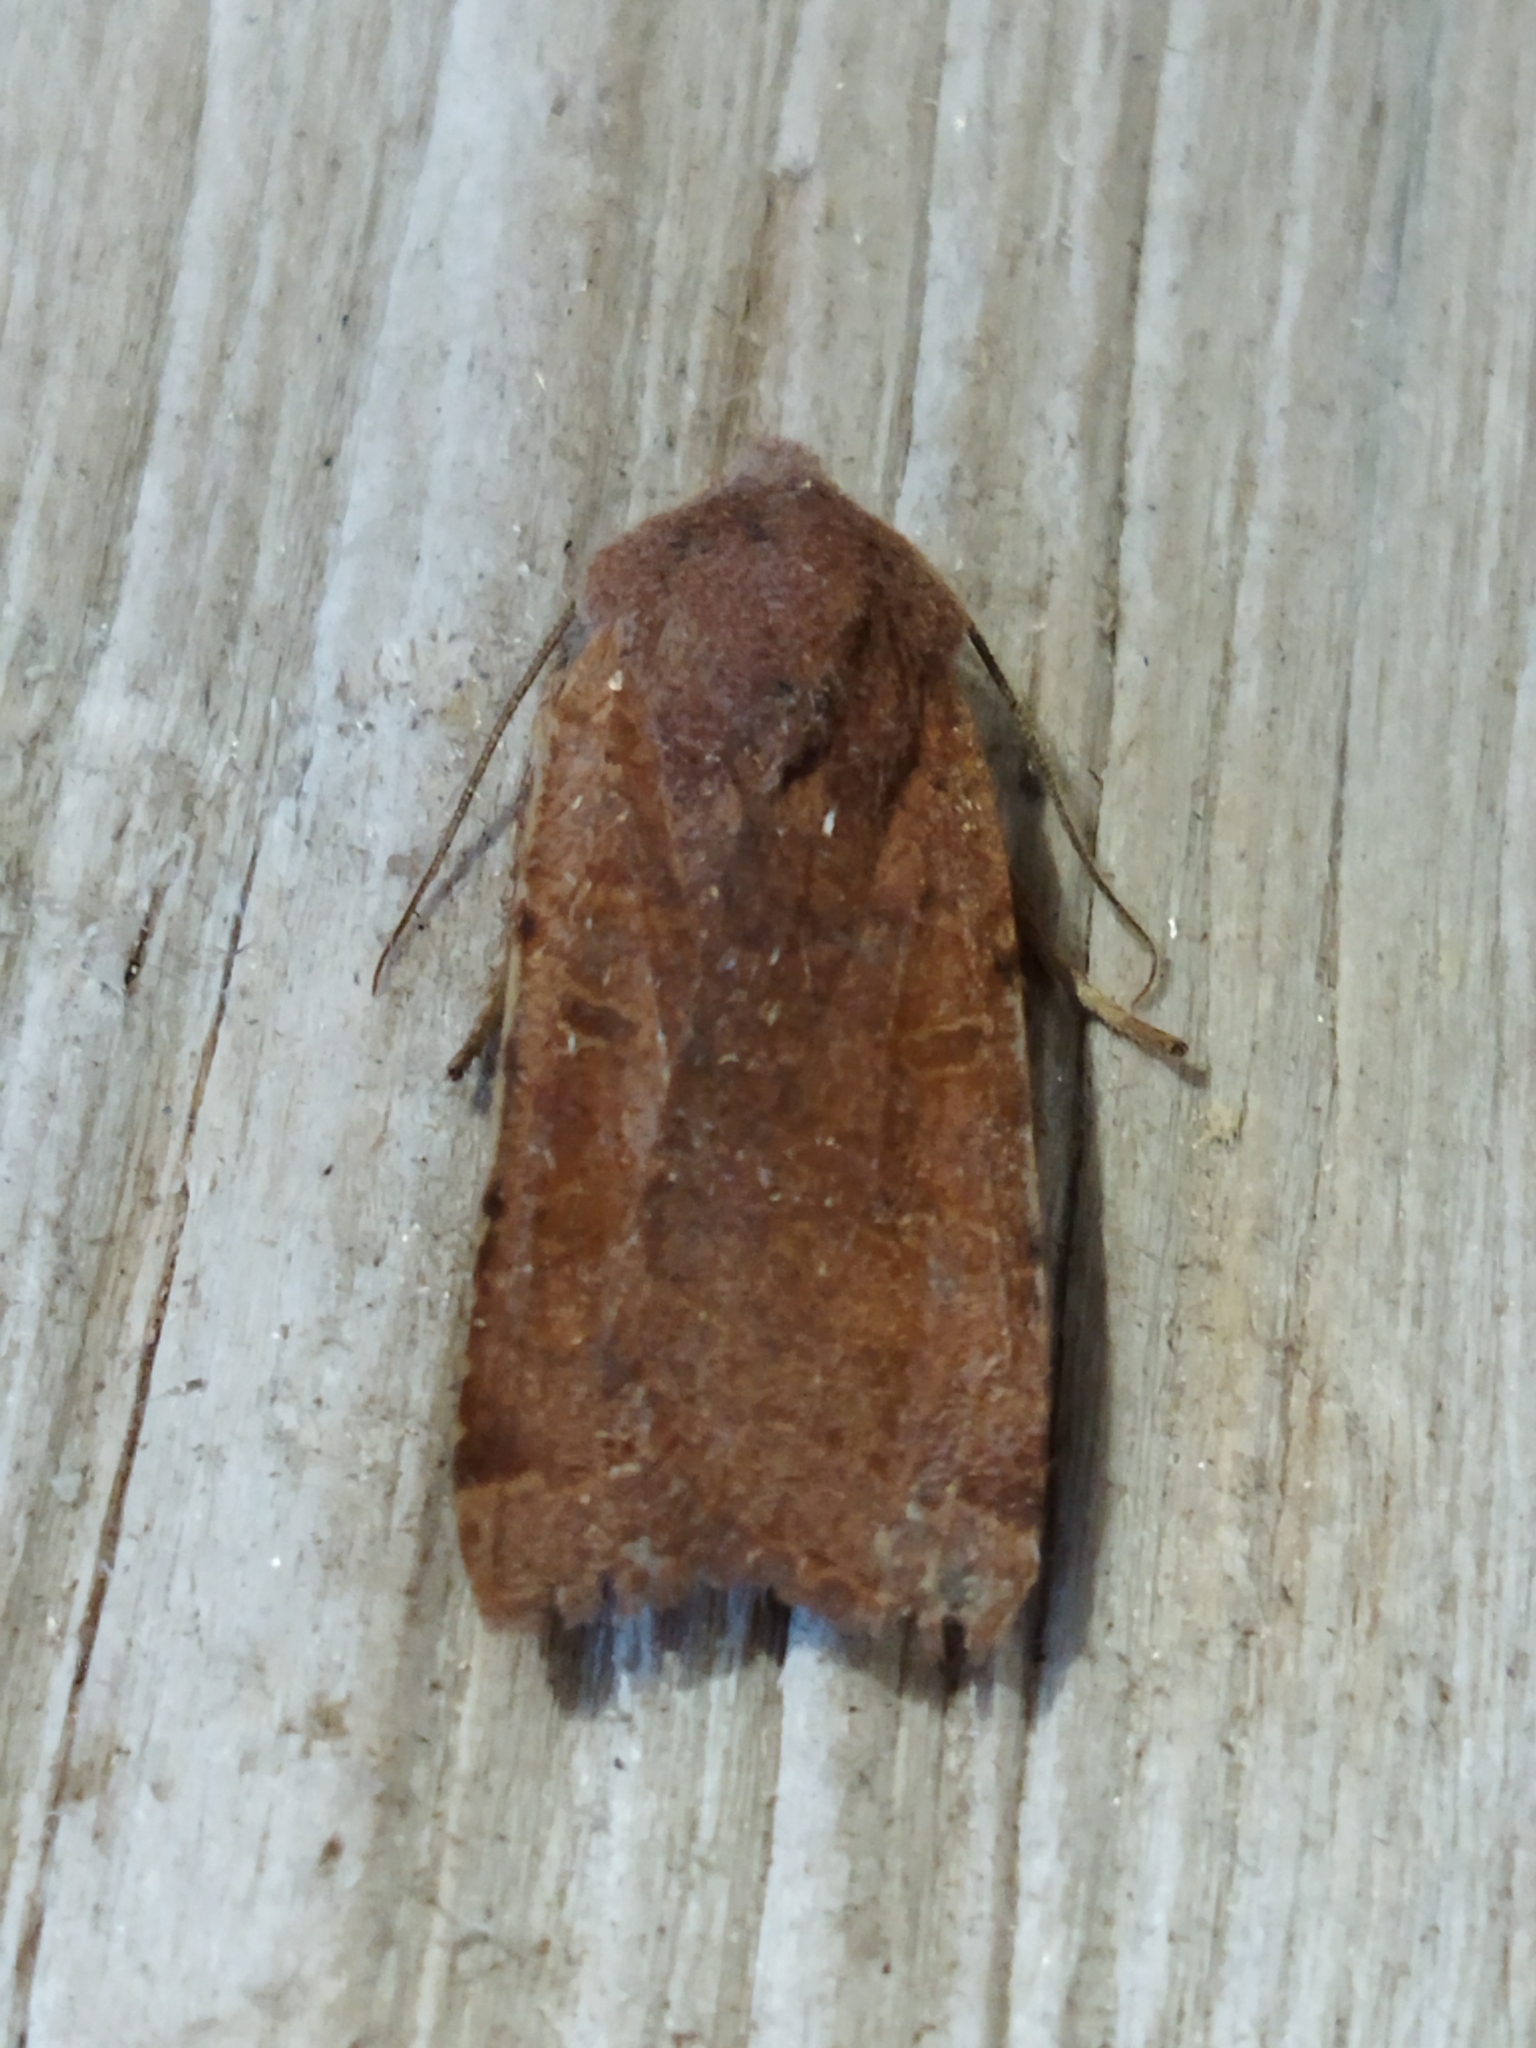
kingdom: Animalia
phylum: Arthropoda
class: Insecta
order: Lepidoptera
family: Noctuidae
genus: Agrochola
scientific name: Agrochola lychnidis
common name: Beaded chestnut
